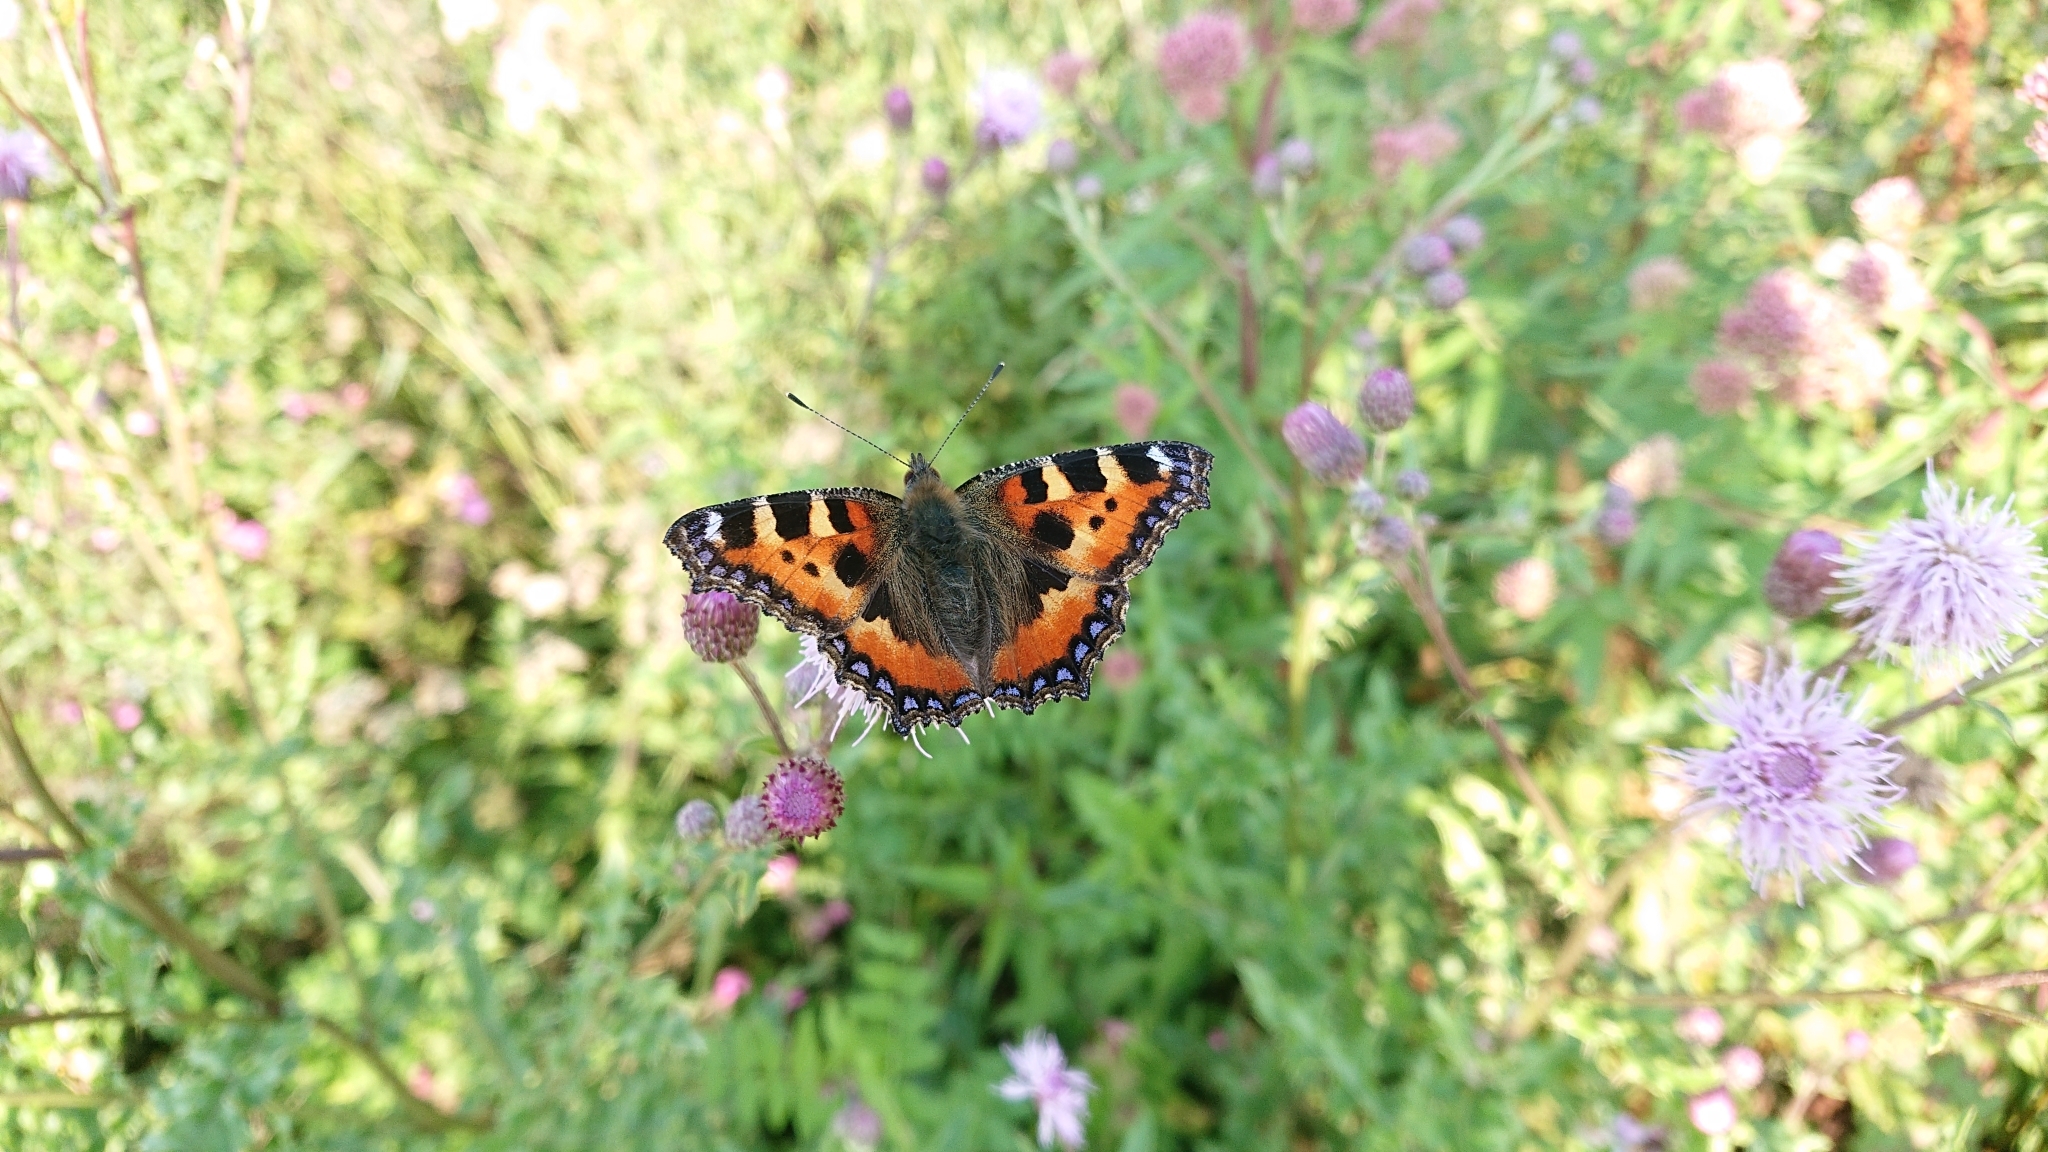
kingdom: Animalia
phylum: Arthropoda
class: Insecta
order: Lepidoptera
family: Nymphalidae
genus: Aglais
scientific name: Aglais urticae
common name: Small tortoiseshell
